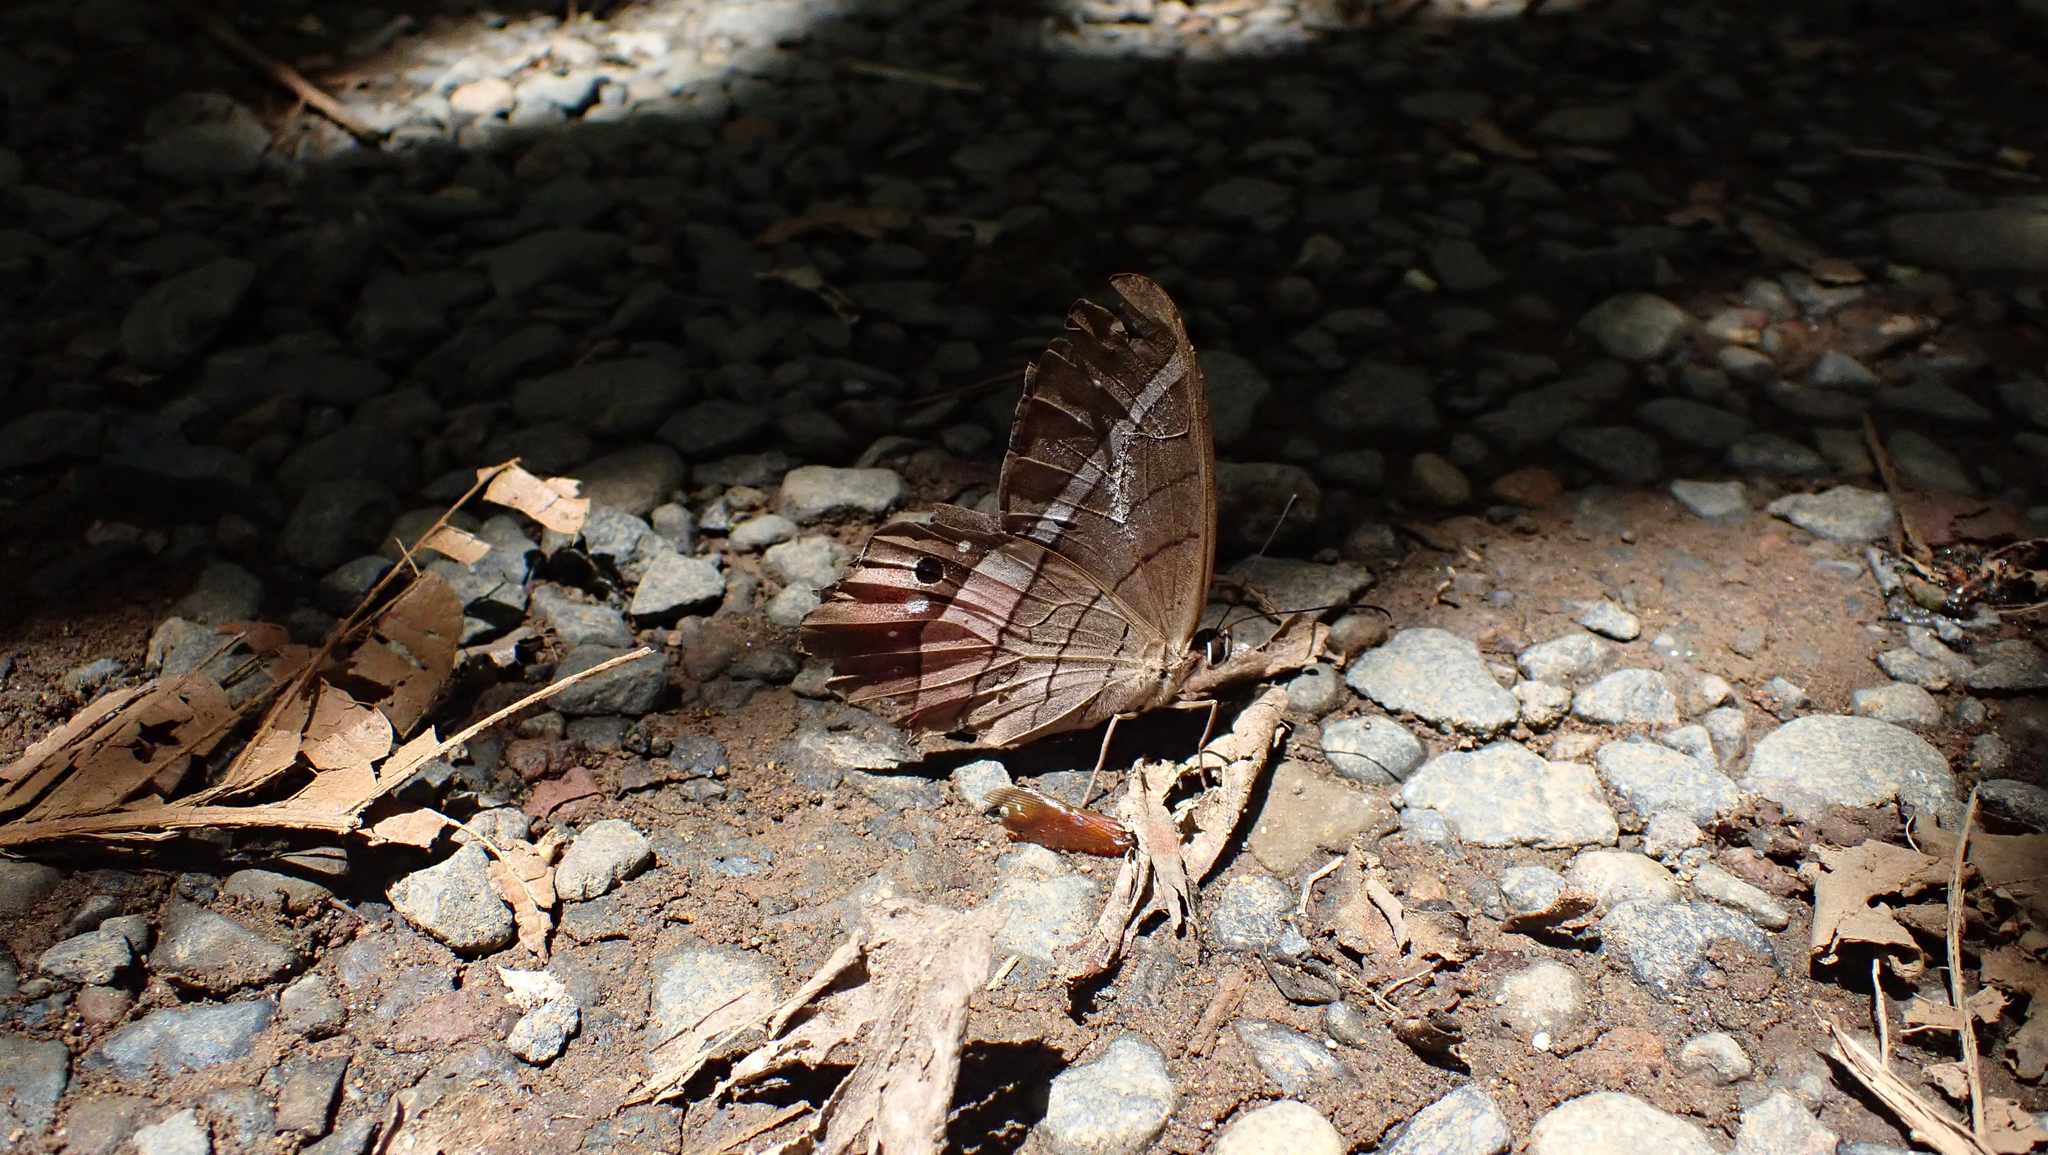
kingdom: Animalia
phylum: Arthropoda
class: Insecta
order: Lepidoptera
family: Nymphalidae
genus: Pierella
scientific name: Pierella helvina
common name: Red-washed satyr
